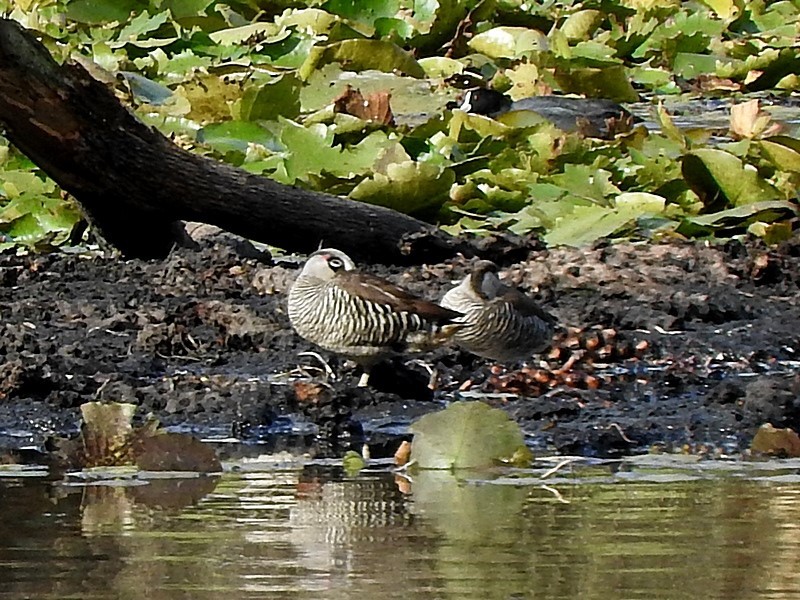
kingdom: Animalia
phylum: Chordata
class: Aves
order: Anseriformes
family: Anatidae
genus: Malacorhynchus
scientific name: Malacorhynchus membranaceus
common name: Pink-eared duck
